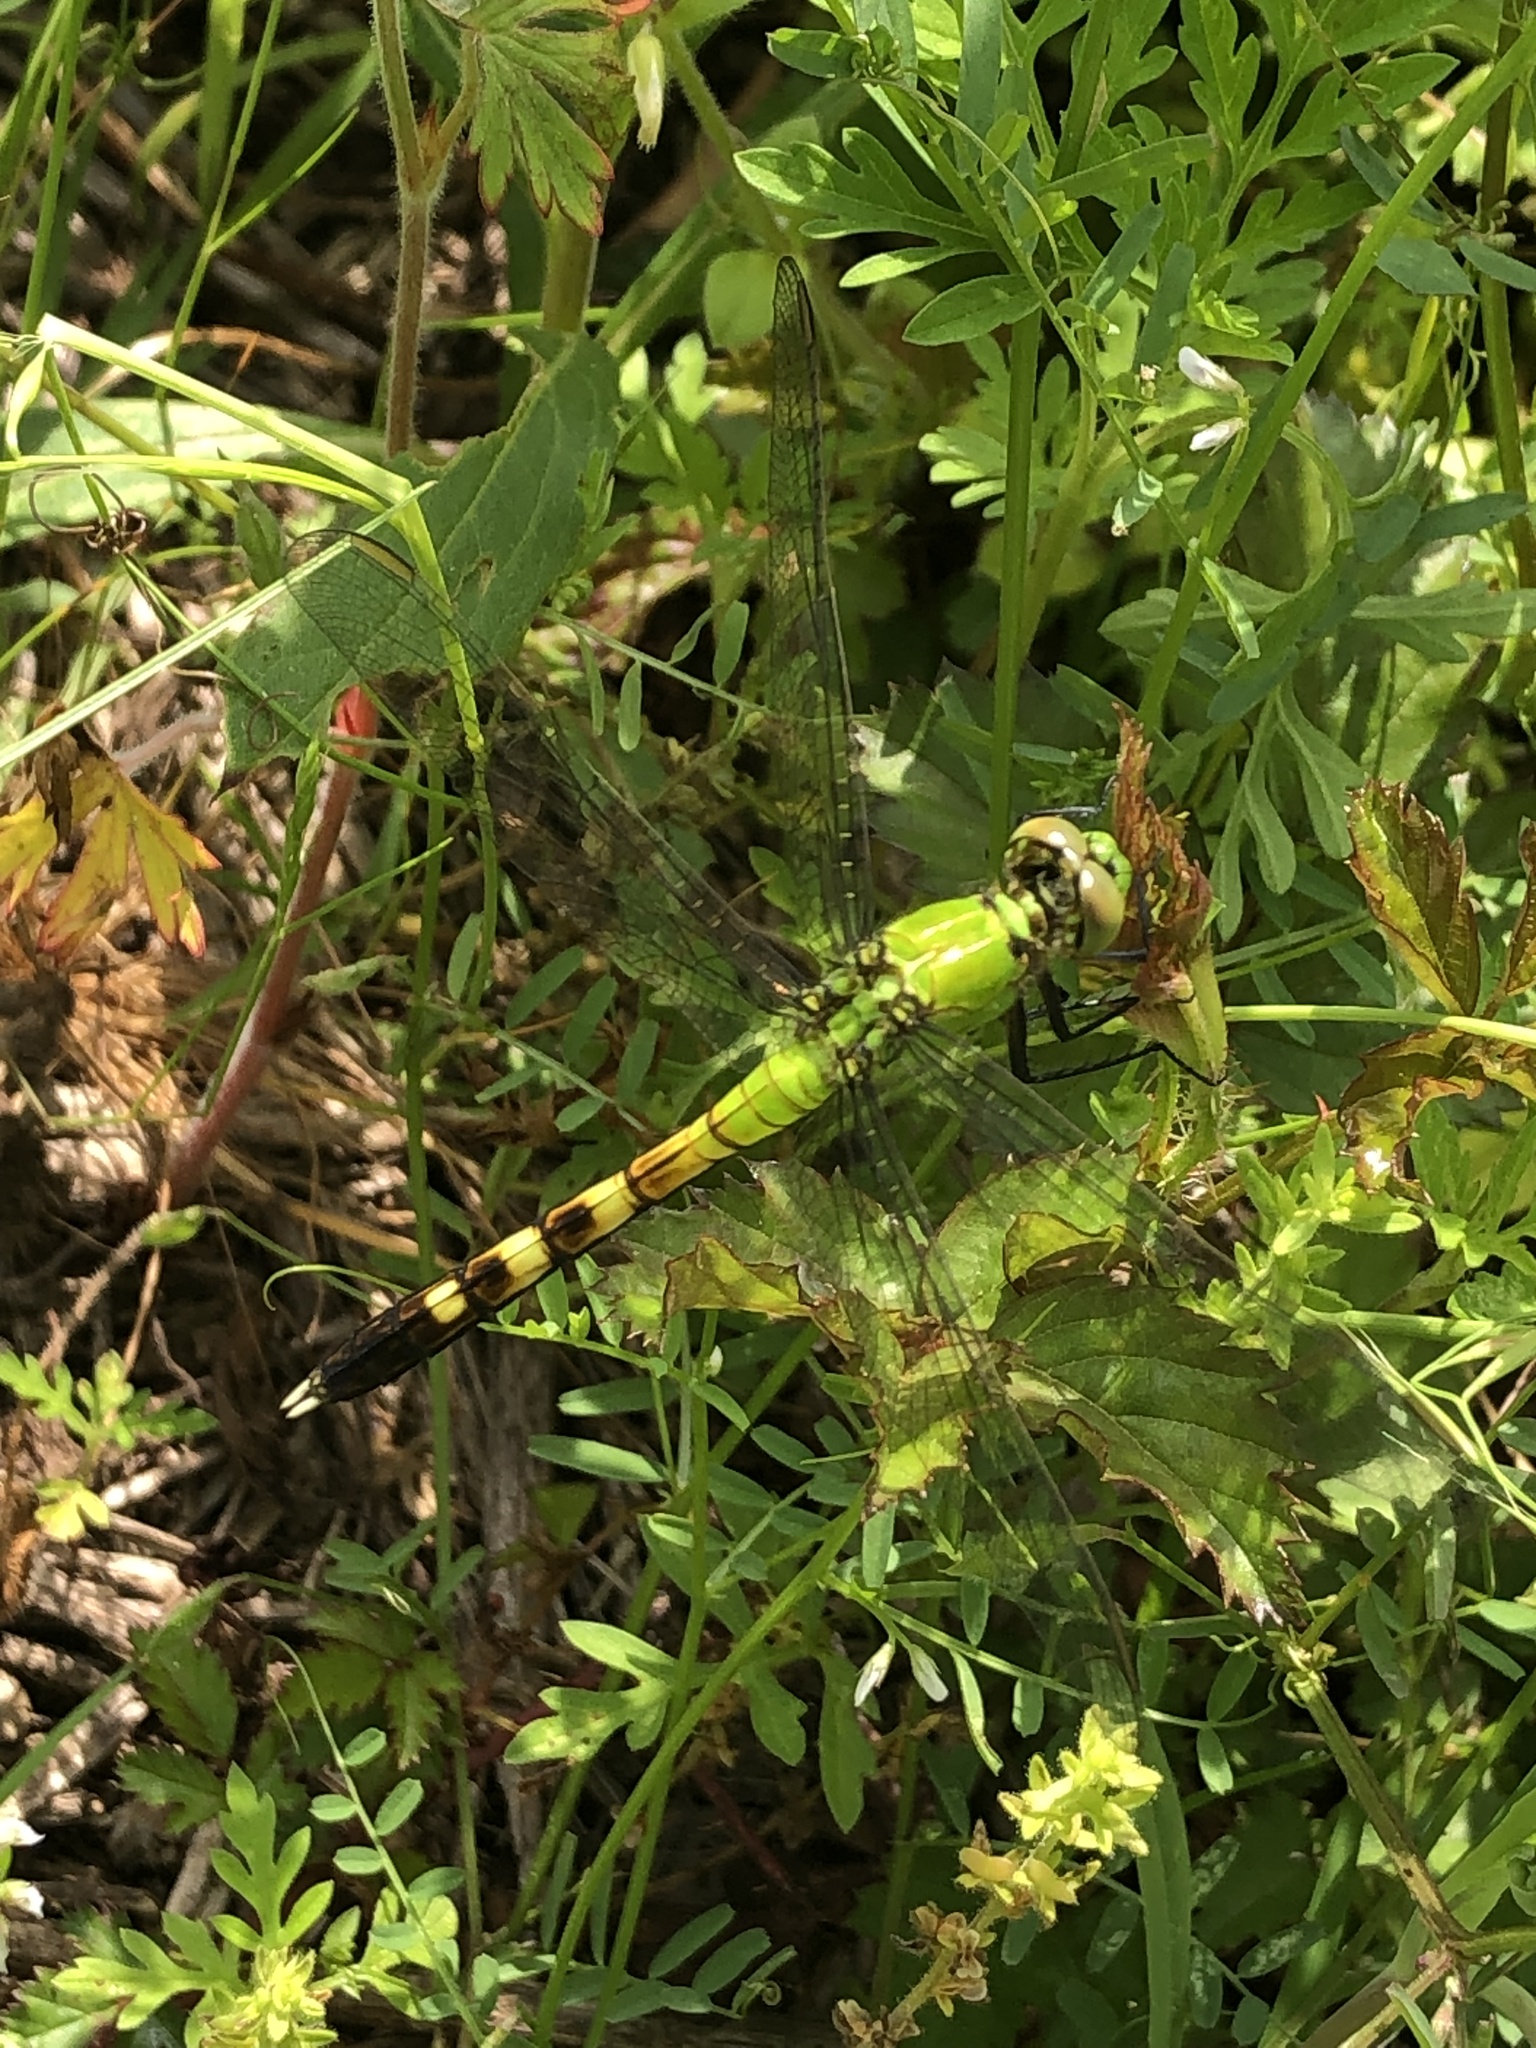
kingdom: Animalia
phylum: Arthropoda
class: Insecta
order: Odonata
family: Libellulidae
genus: Erythemis
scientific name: Erythemis simplicicollis
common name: Eastern pondhawk
